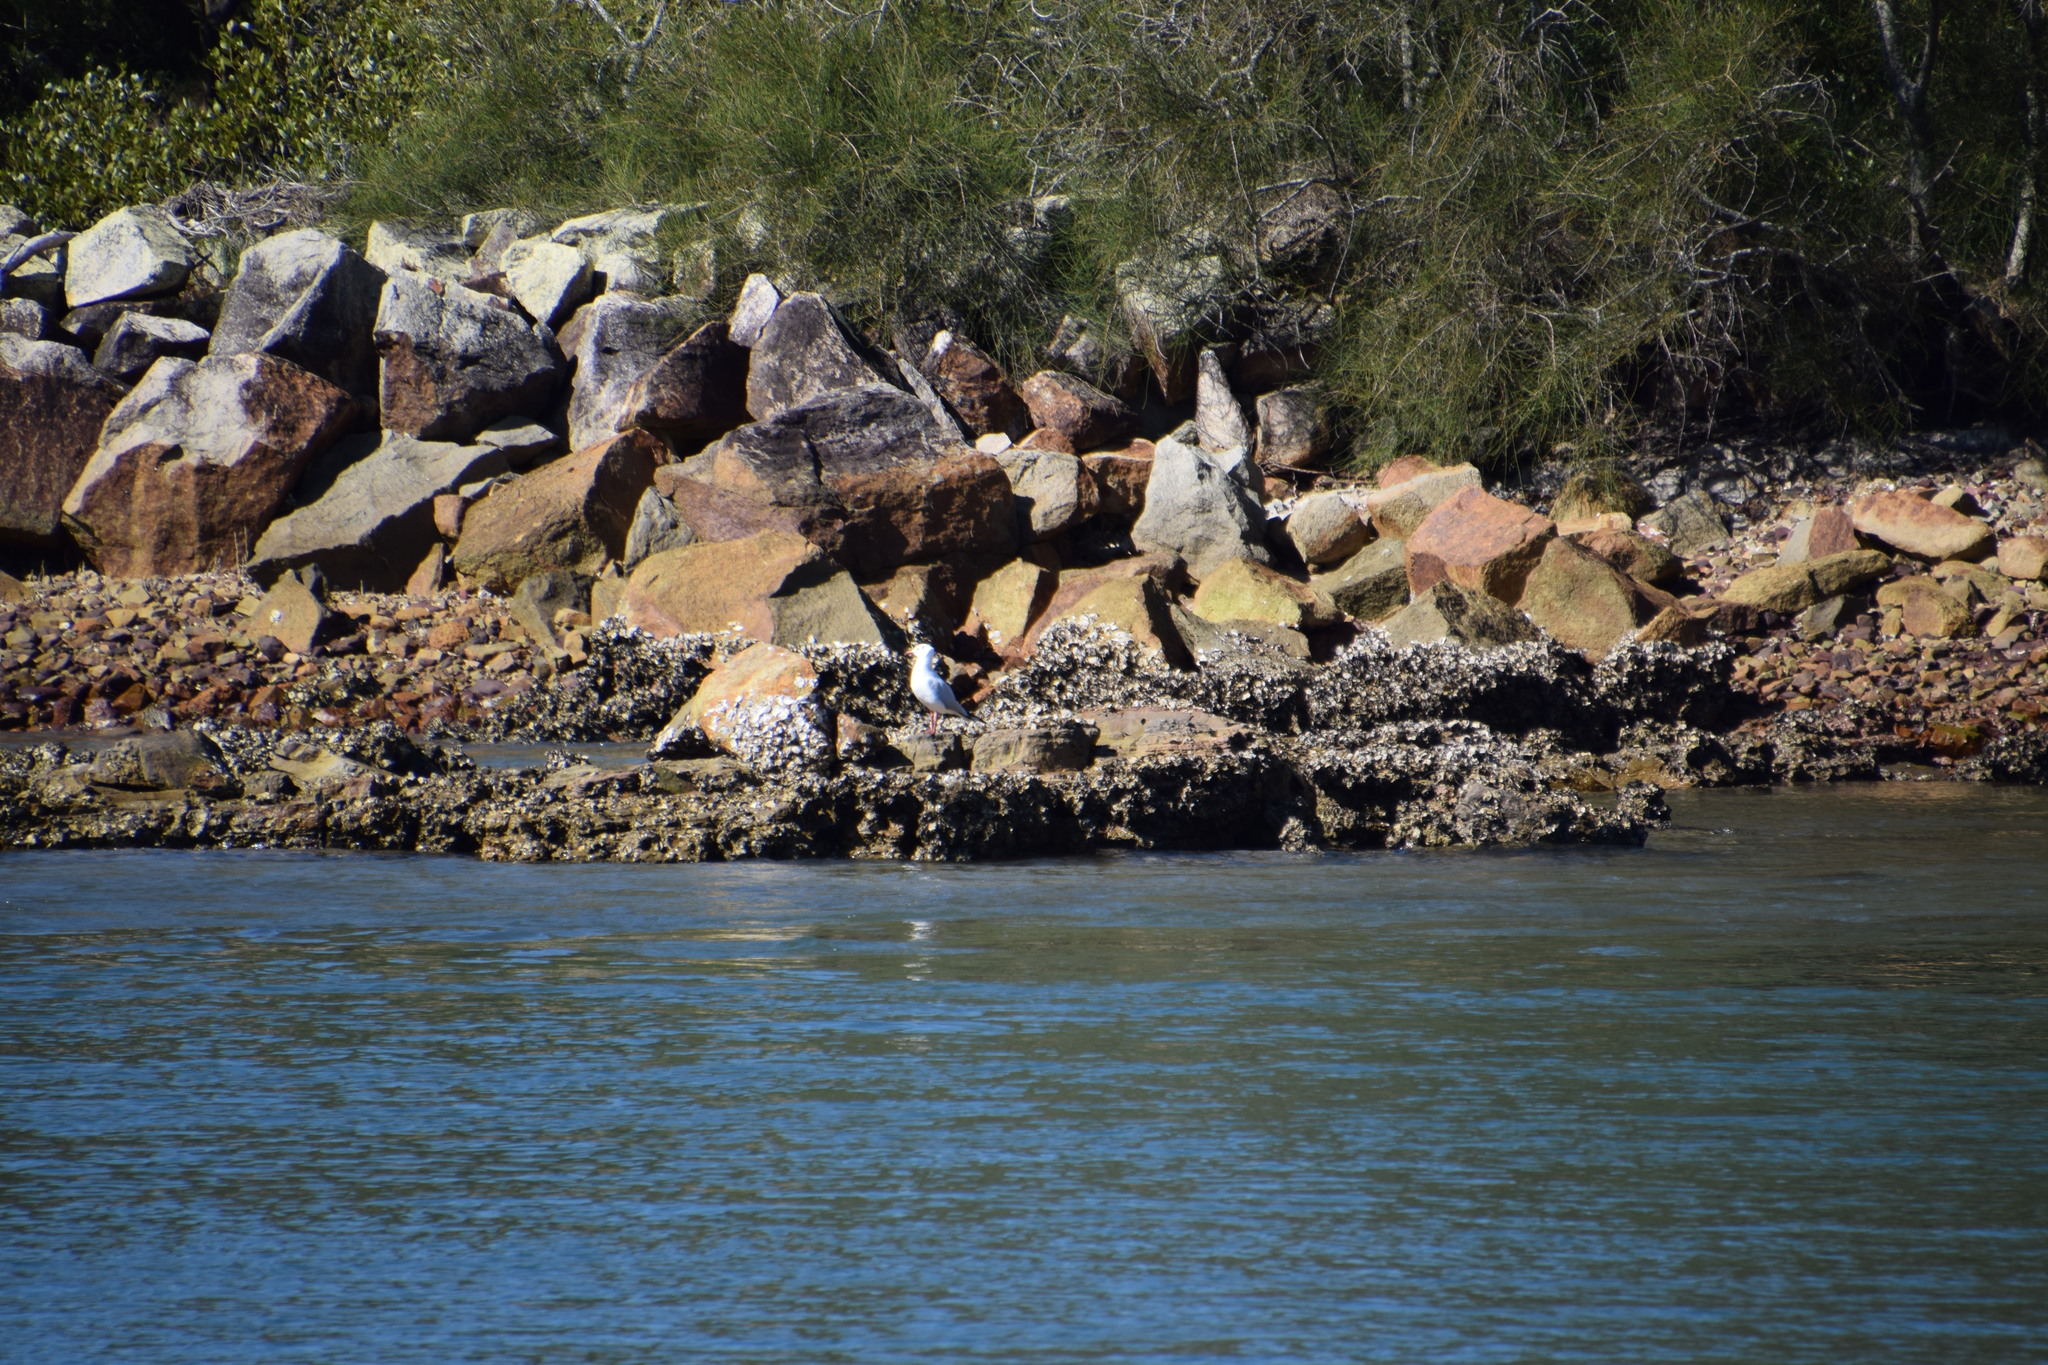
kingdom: Animalia
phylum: Chordata
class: Aves
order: Charadriiformes
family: Laridae
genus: Chroicocephalus
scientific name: Chroicocephalus novaehollandiae
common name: Silver gull
